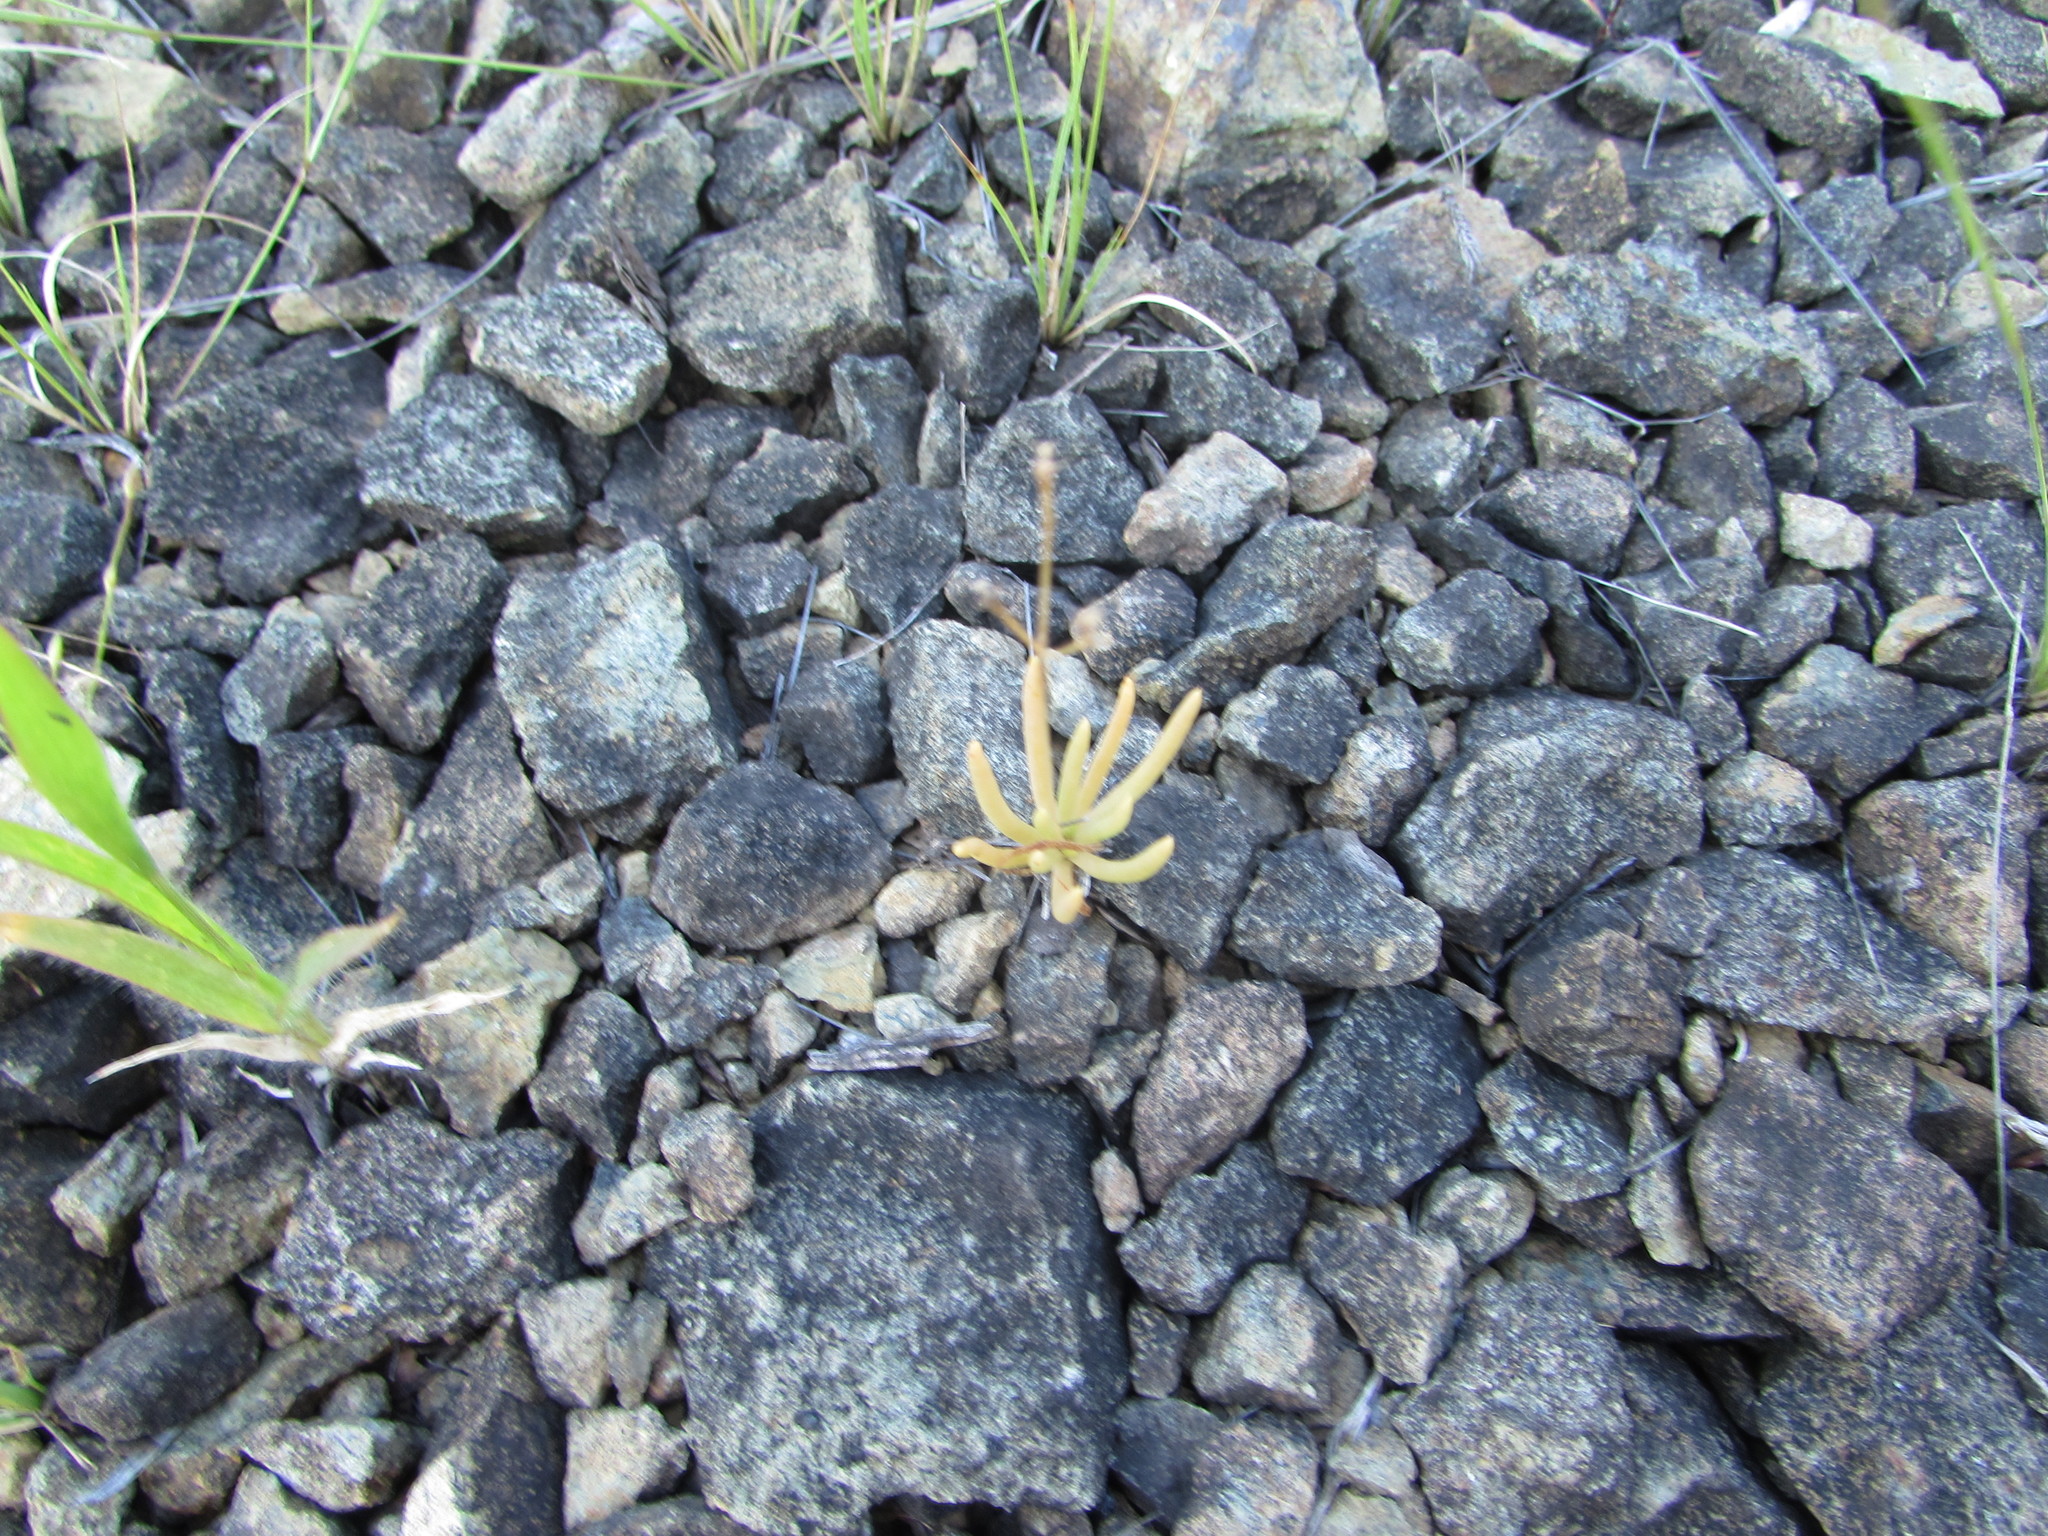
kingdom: Plantae
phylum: Tracheophyta
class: Magnoliopsida
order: Caryophyllales
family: Montiaceae
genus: Phemeranthus
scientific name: Phemeranthus teretifolius
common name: Quill fameflower
